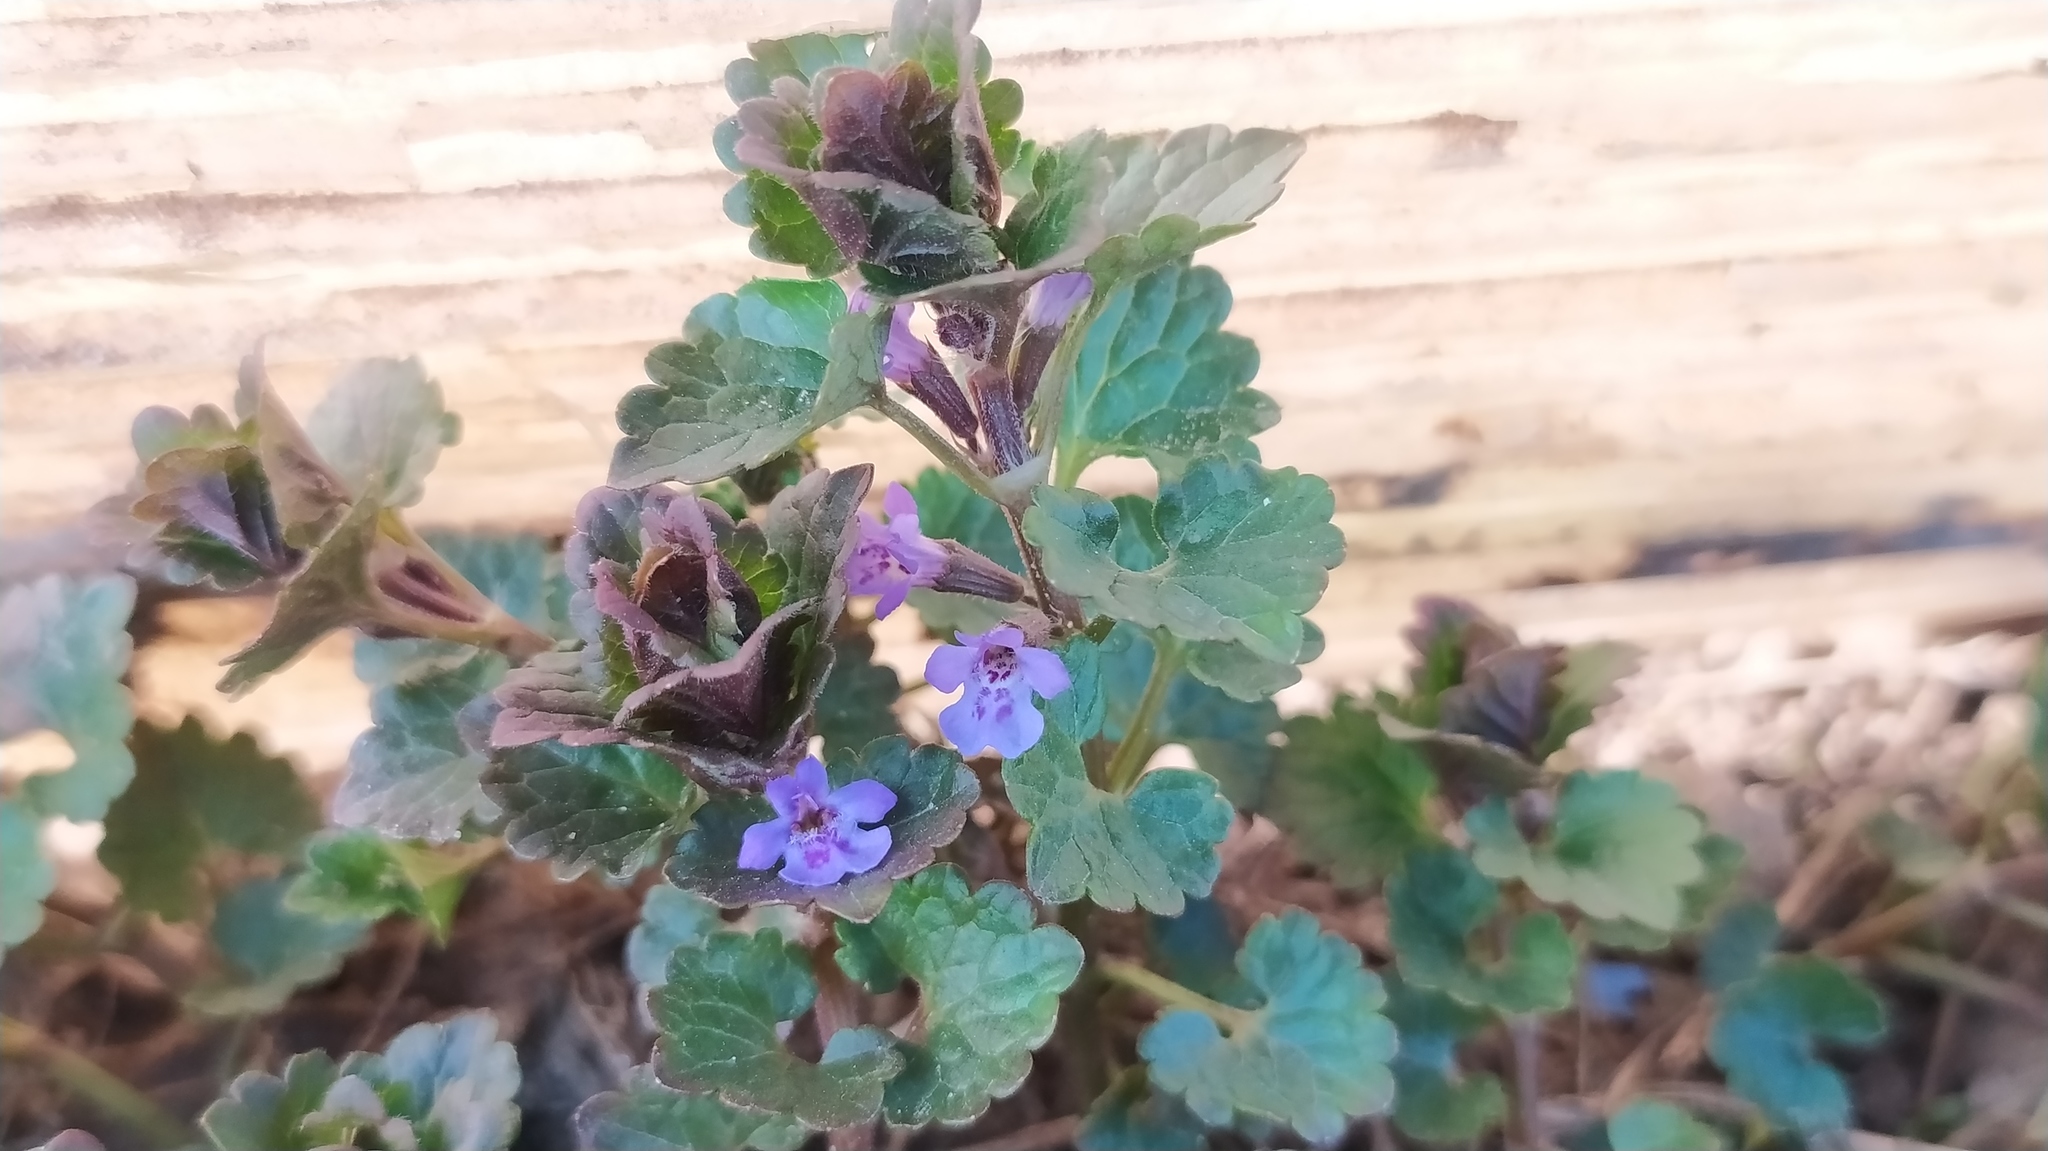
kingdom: Plantae
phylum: Tracheophyta
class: Magnoliopsida
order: Lamiales
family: Lamiaceae
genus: Glechoma
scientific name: Glechoma hederacea
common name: Ground ivy
